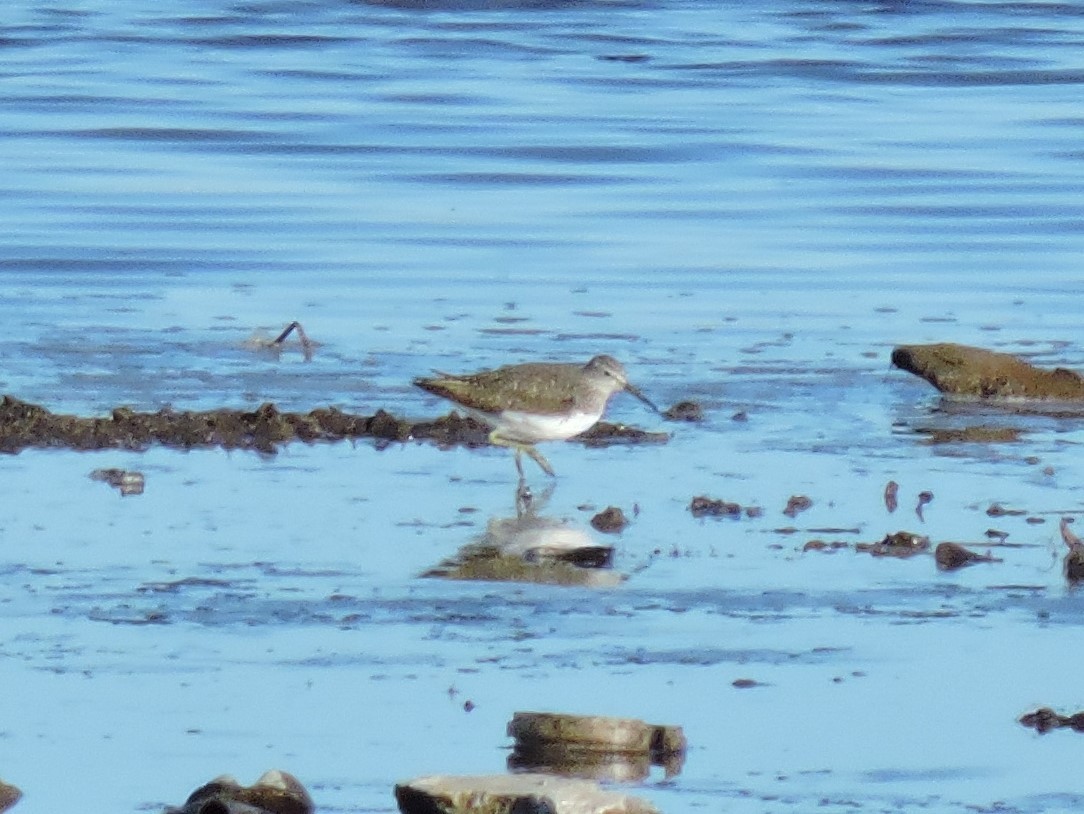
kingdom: Animalia
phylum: Chordata
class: Aves
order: Charadriiformes
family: Scolopacidae
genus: Tringa
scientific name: Tringa ochropus
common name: Green sandpiper
